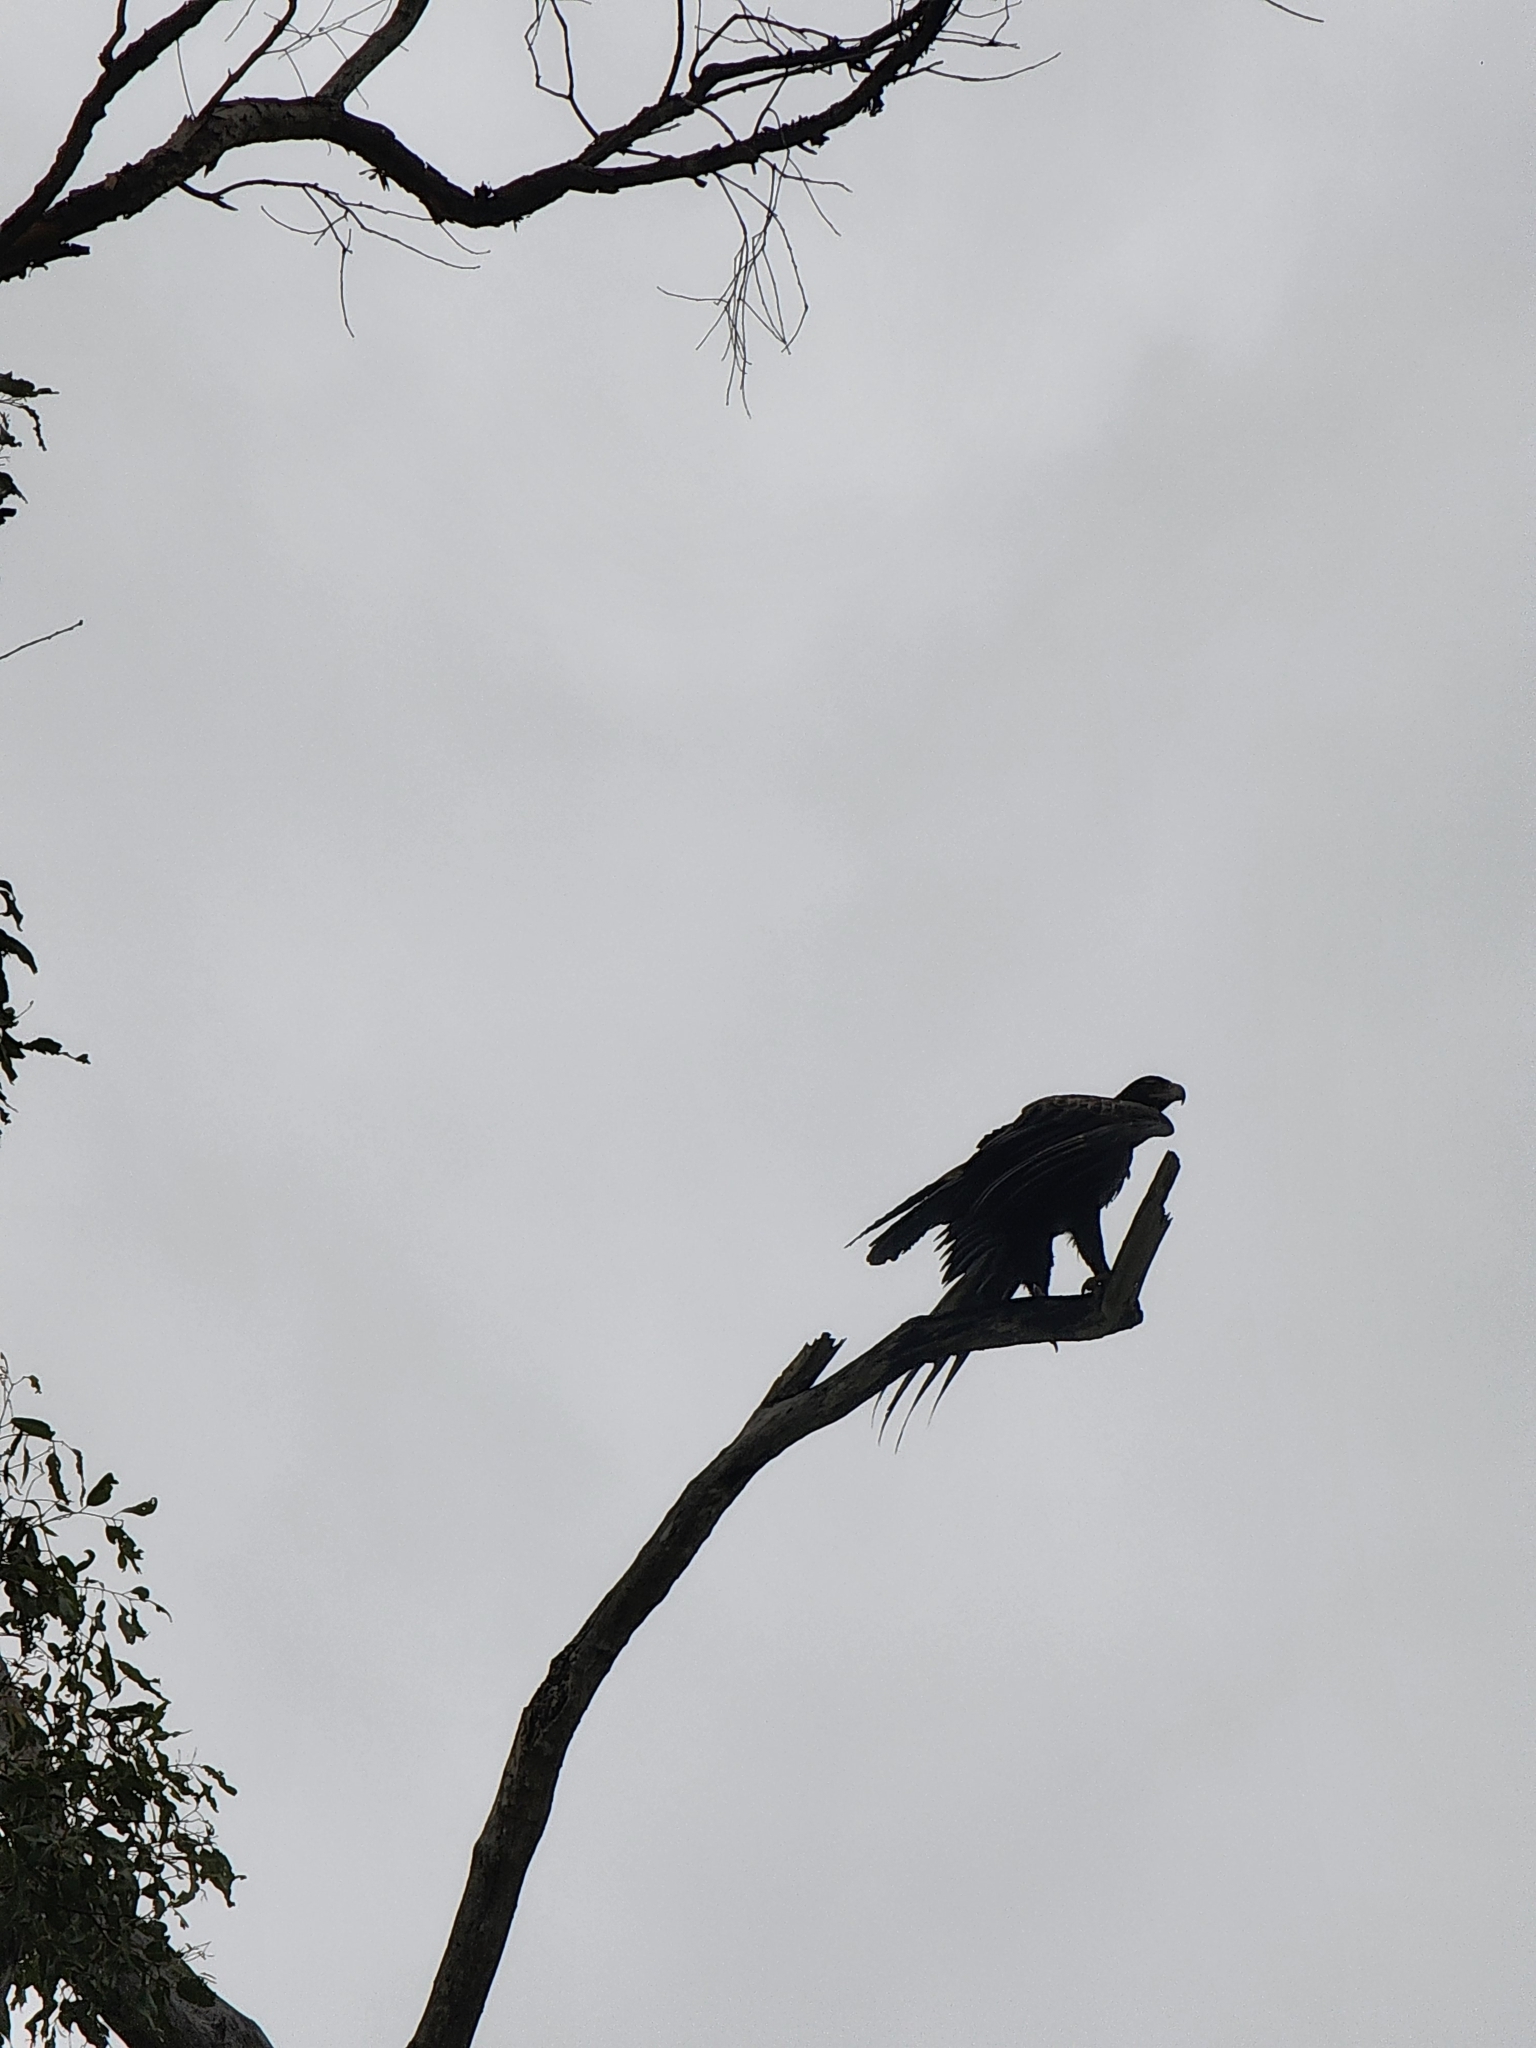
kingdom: Animalia
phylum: Chordata
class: Aves
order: Accipitriformes
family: Accipitridae
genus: Aquila
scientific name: Aquila audax
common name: Wedge-tailed eagle
